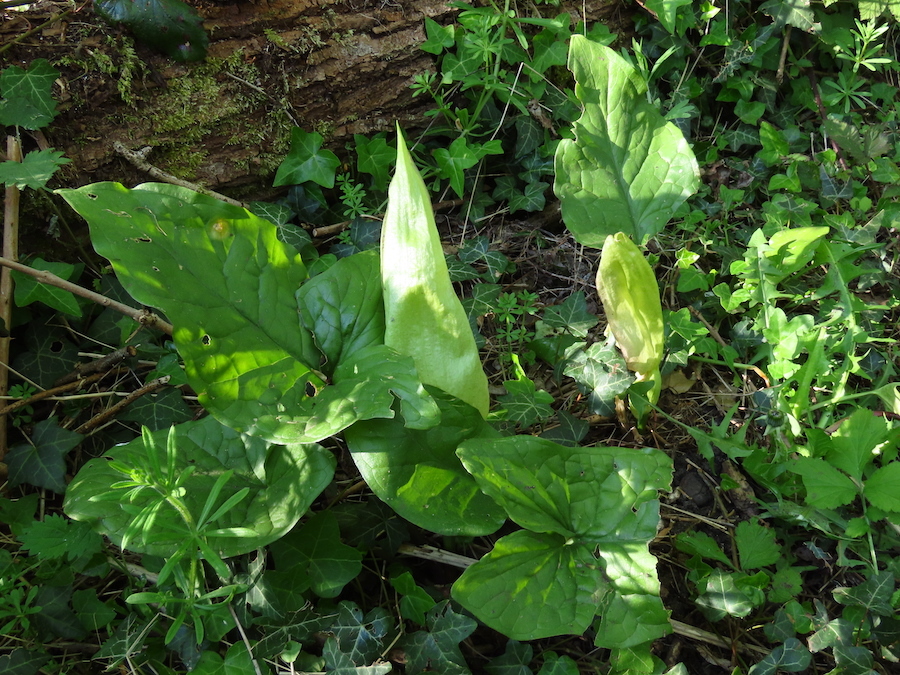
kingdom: Plantae
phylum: Tracheophyta
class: Liliopsida
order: Alismatales
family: Araceae
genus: Arum
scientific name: Arum maculatum
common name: Lords-and-ladies
